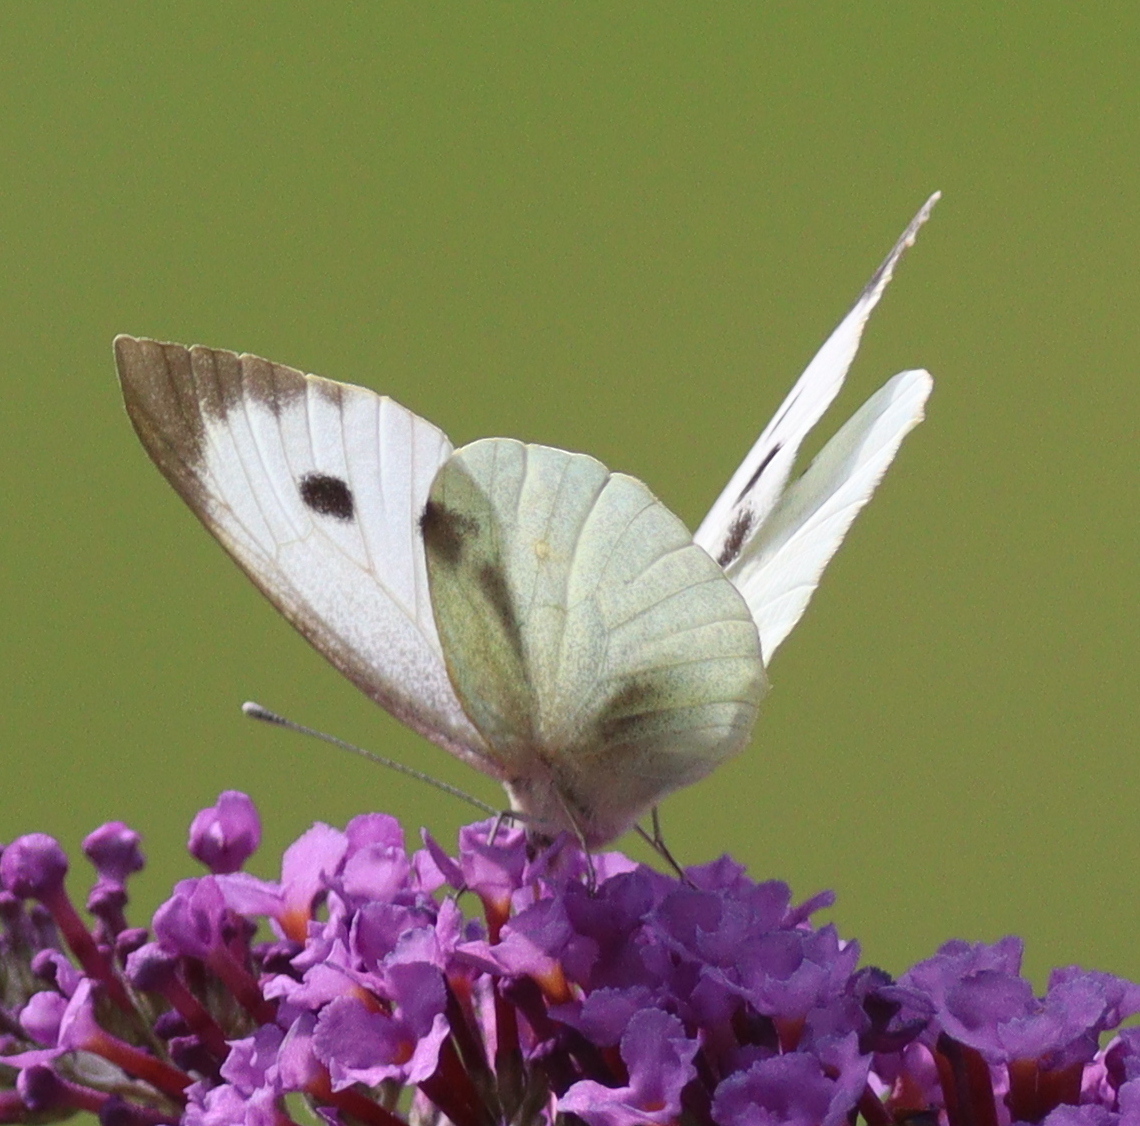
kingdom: Animalia
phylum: Arthropoda
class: Insecta
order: Lepidoptera
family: Pieridae
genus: Pieris
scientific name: Pieris brassicae
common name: Large white
